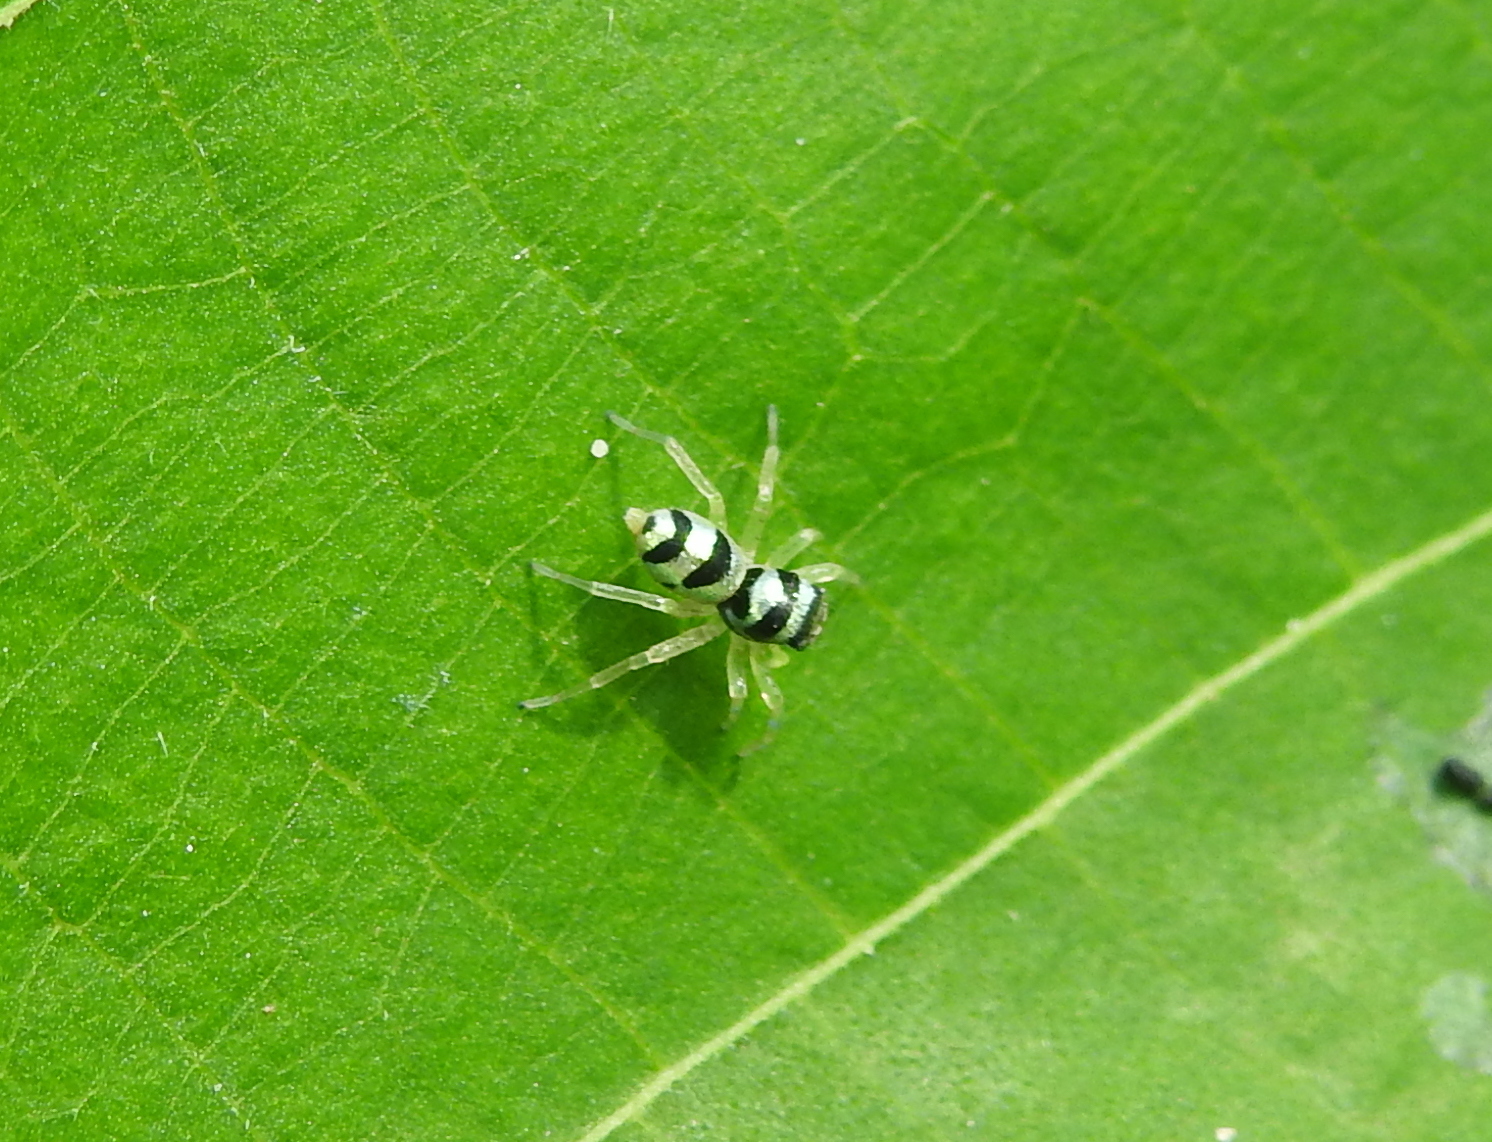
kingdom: Animalia
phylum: Arthropoda
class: Arachnida
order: Araneae
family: Salticidae
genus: Phintella
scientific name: Phintella vittata
